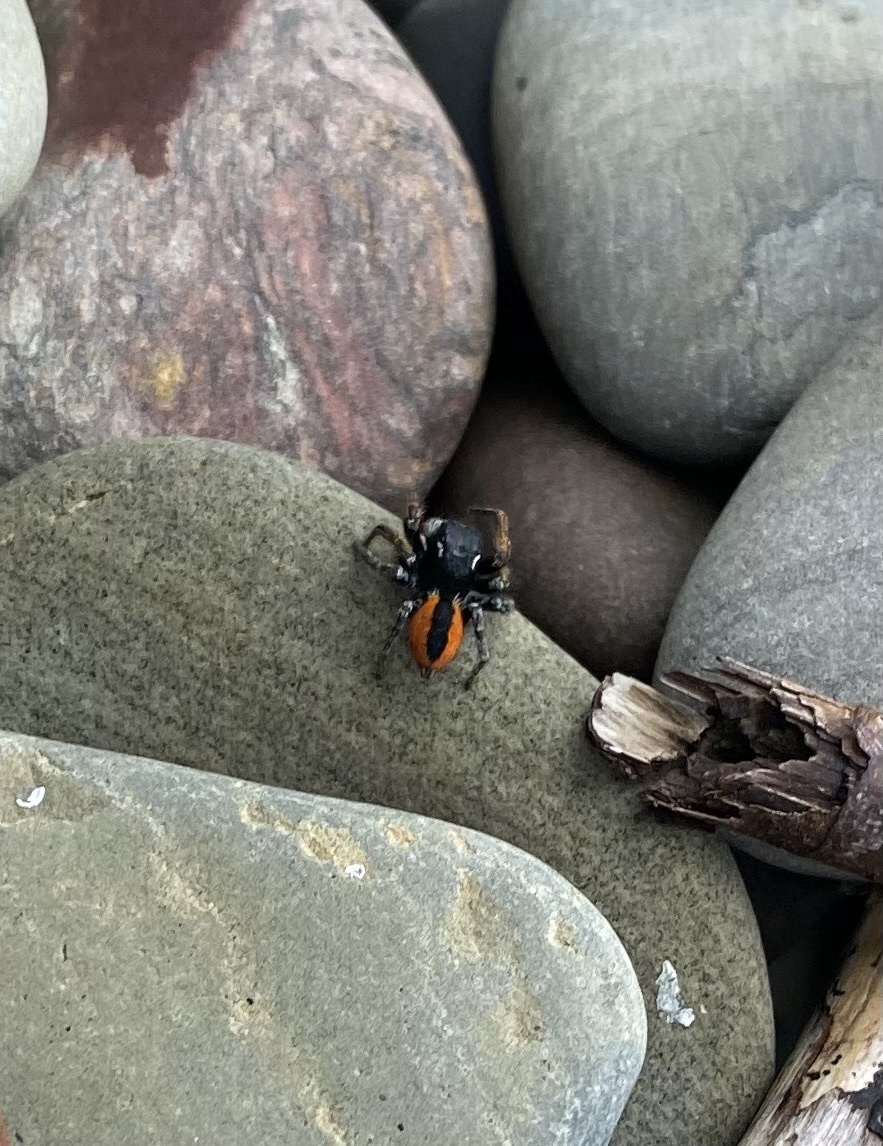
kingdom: Animalia
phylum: Arthropoda
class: Arachnida
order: Araneae
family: Salticidae
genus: Philaeus
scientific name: Philaeus chrysops
